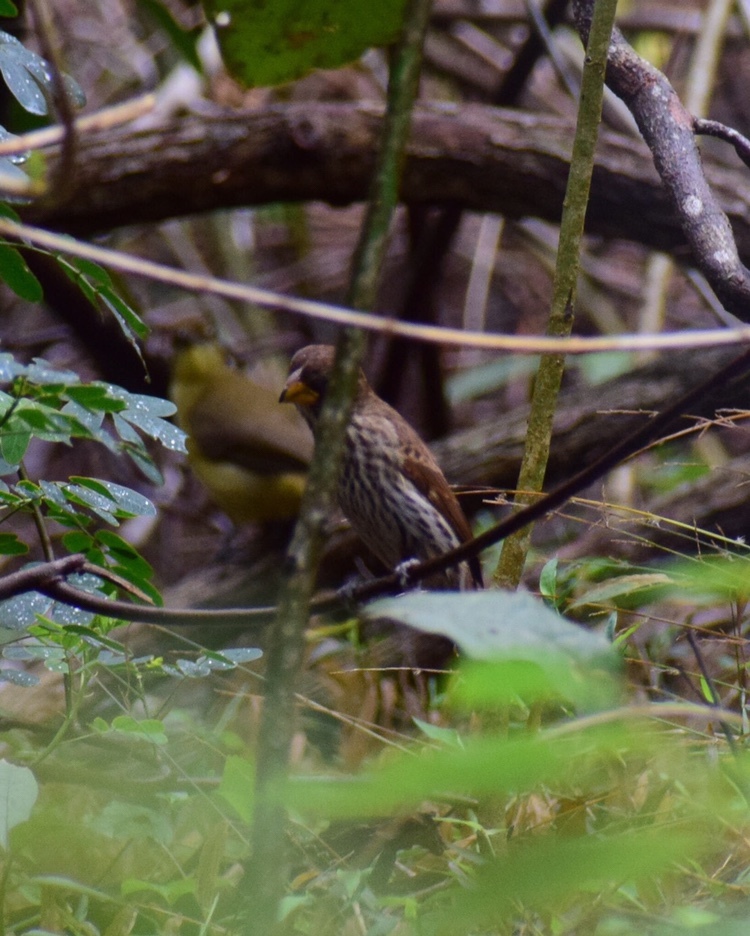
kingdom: Animalia
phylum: Chordata
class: Aves
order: Passeriformes
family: Ploceidae
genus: Amblyospiza
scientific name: Amblyospiza albifrons
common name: Thick-billed weaver
